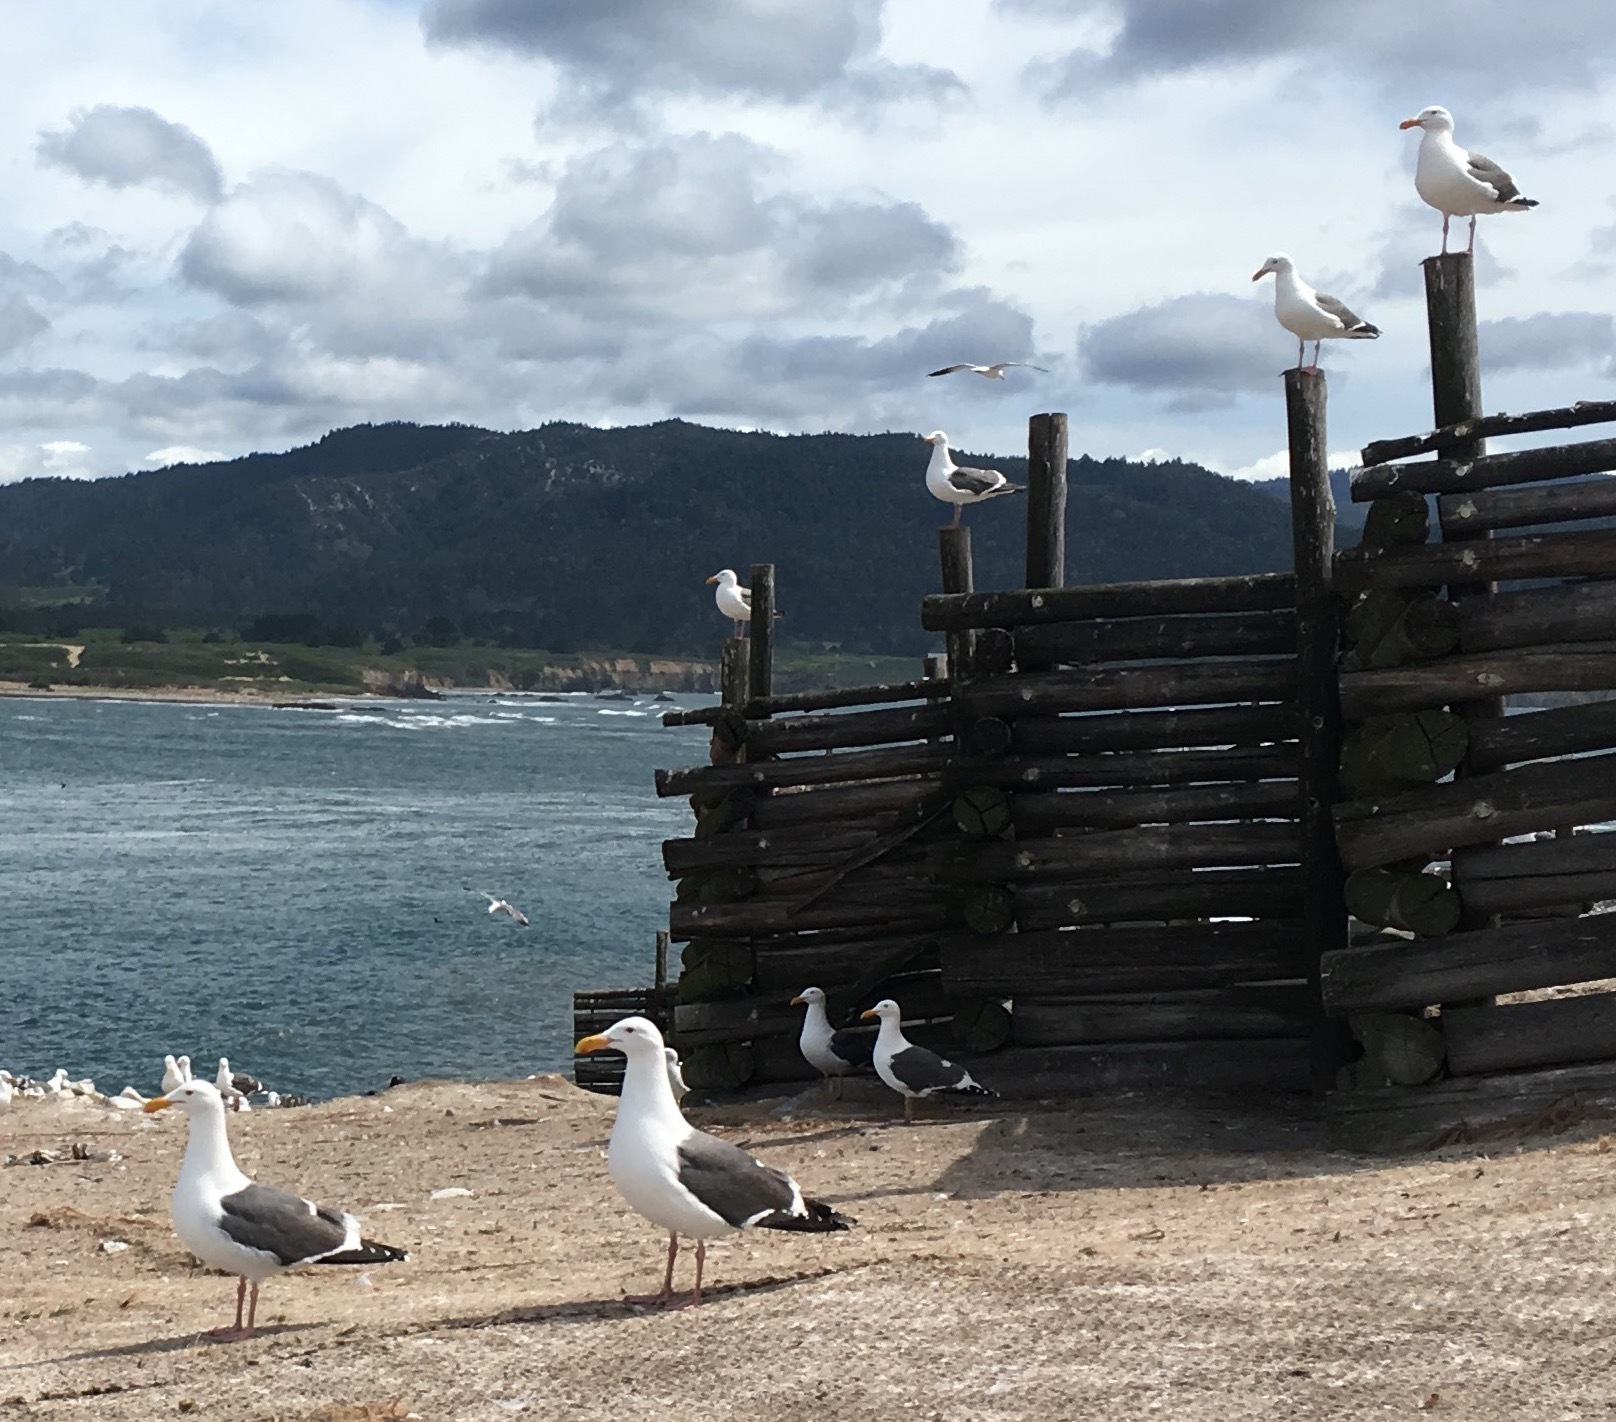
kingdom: Animalia
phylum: Chordata
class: Aves
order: Charadriiformes
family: Laridae
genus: Larus
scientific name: Larus occidentalis
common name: Western gull
